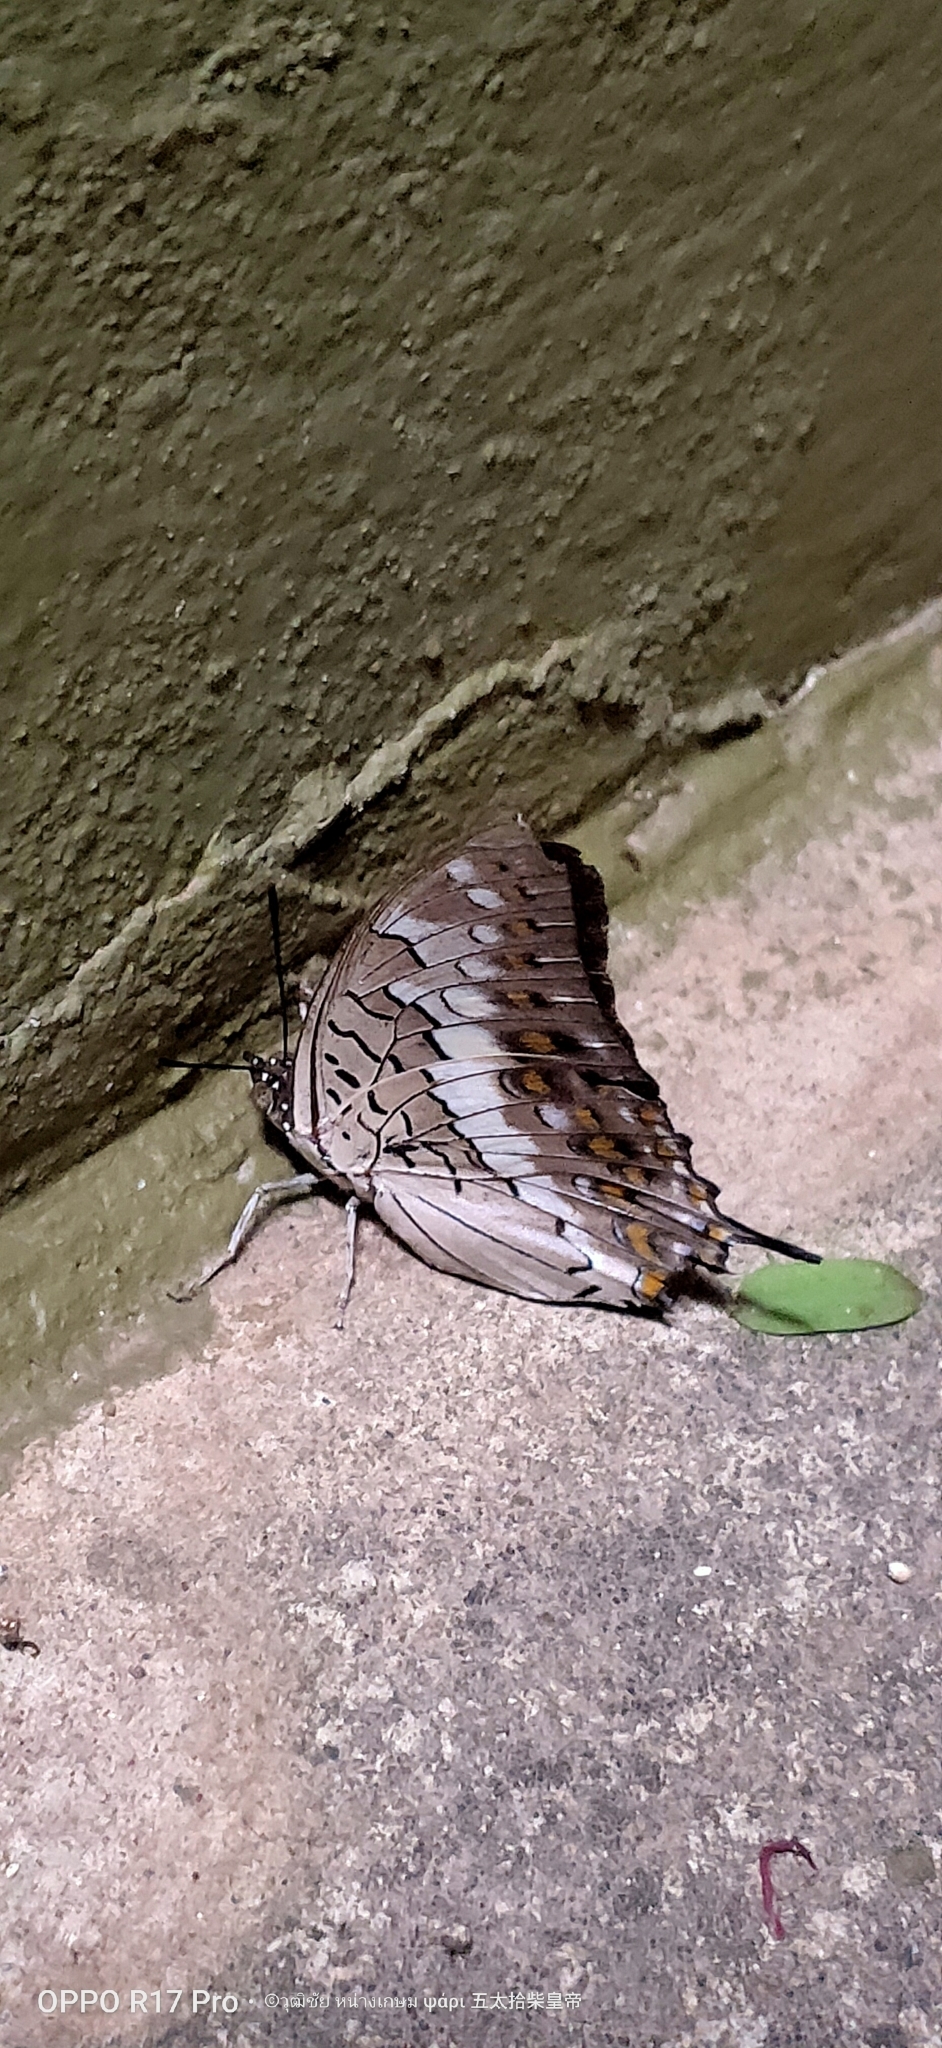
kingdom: Animalia
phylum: Arthropoda
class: Insecta
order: Lepidoptera
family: Nymphalidae
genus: Charaxes
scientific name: Charaxes solon
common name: Black rajah
